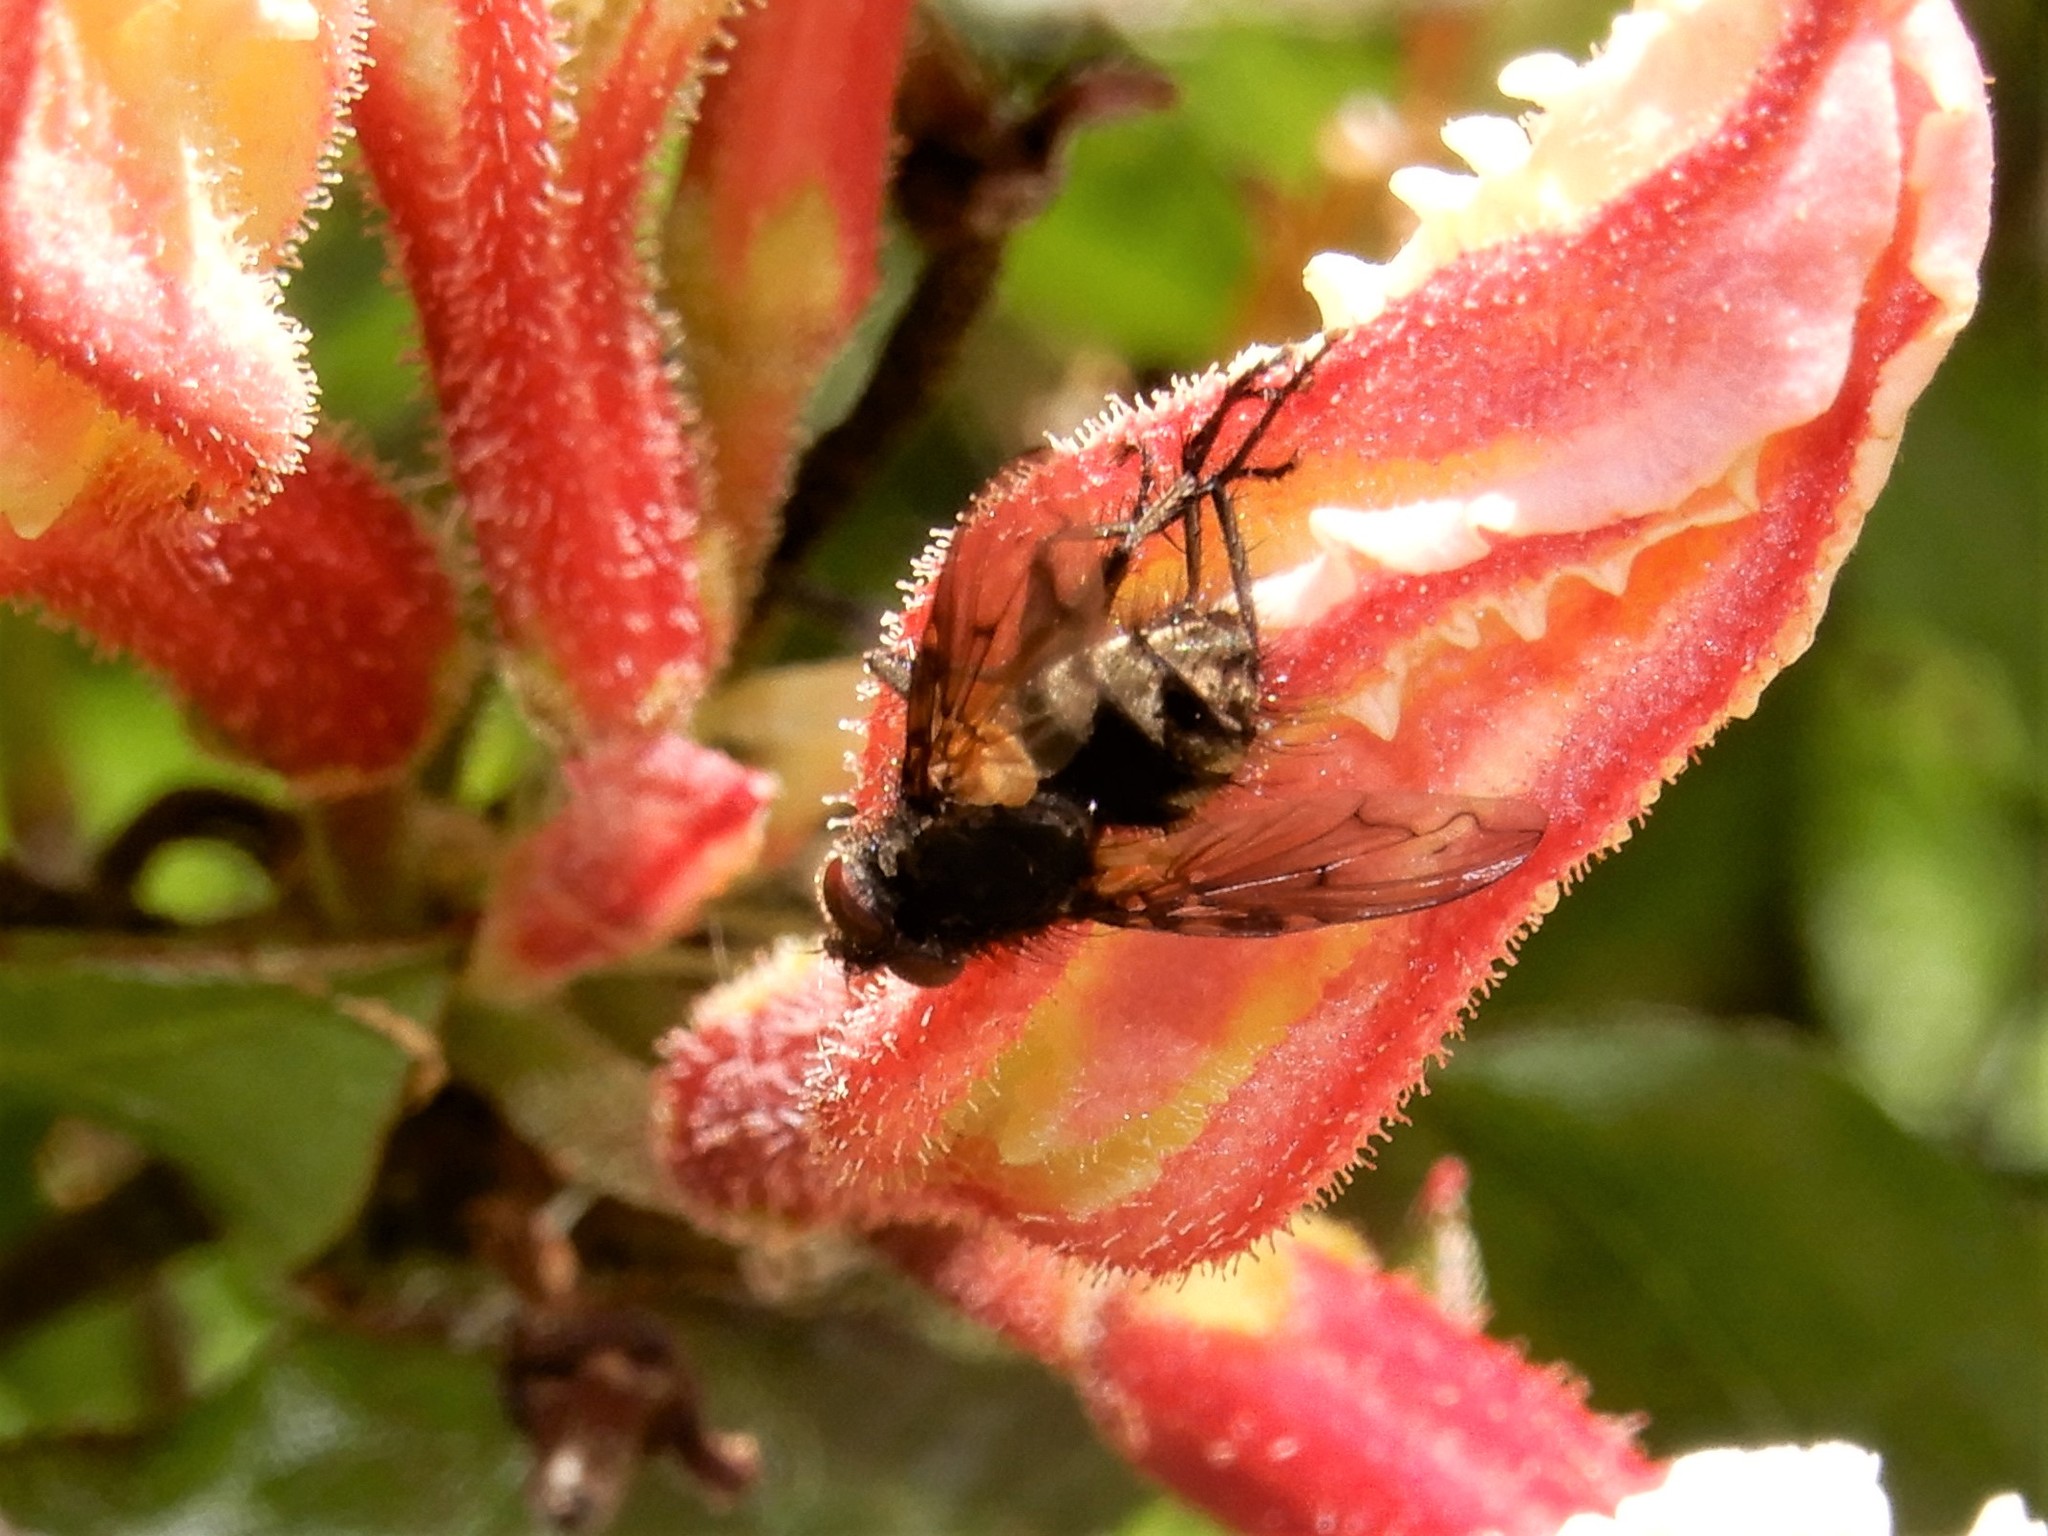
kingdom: Animalia
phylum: Arthropoda
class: Insecta
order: Diptera
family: Tachinidae
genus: Mallochomacquartia
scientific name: Mallochomacquartia vexata
